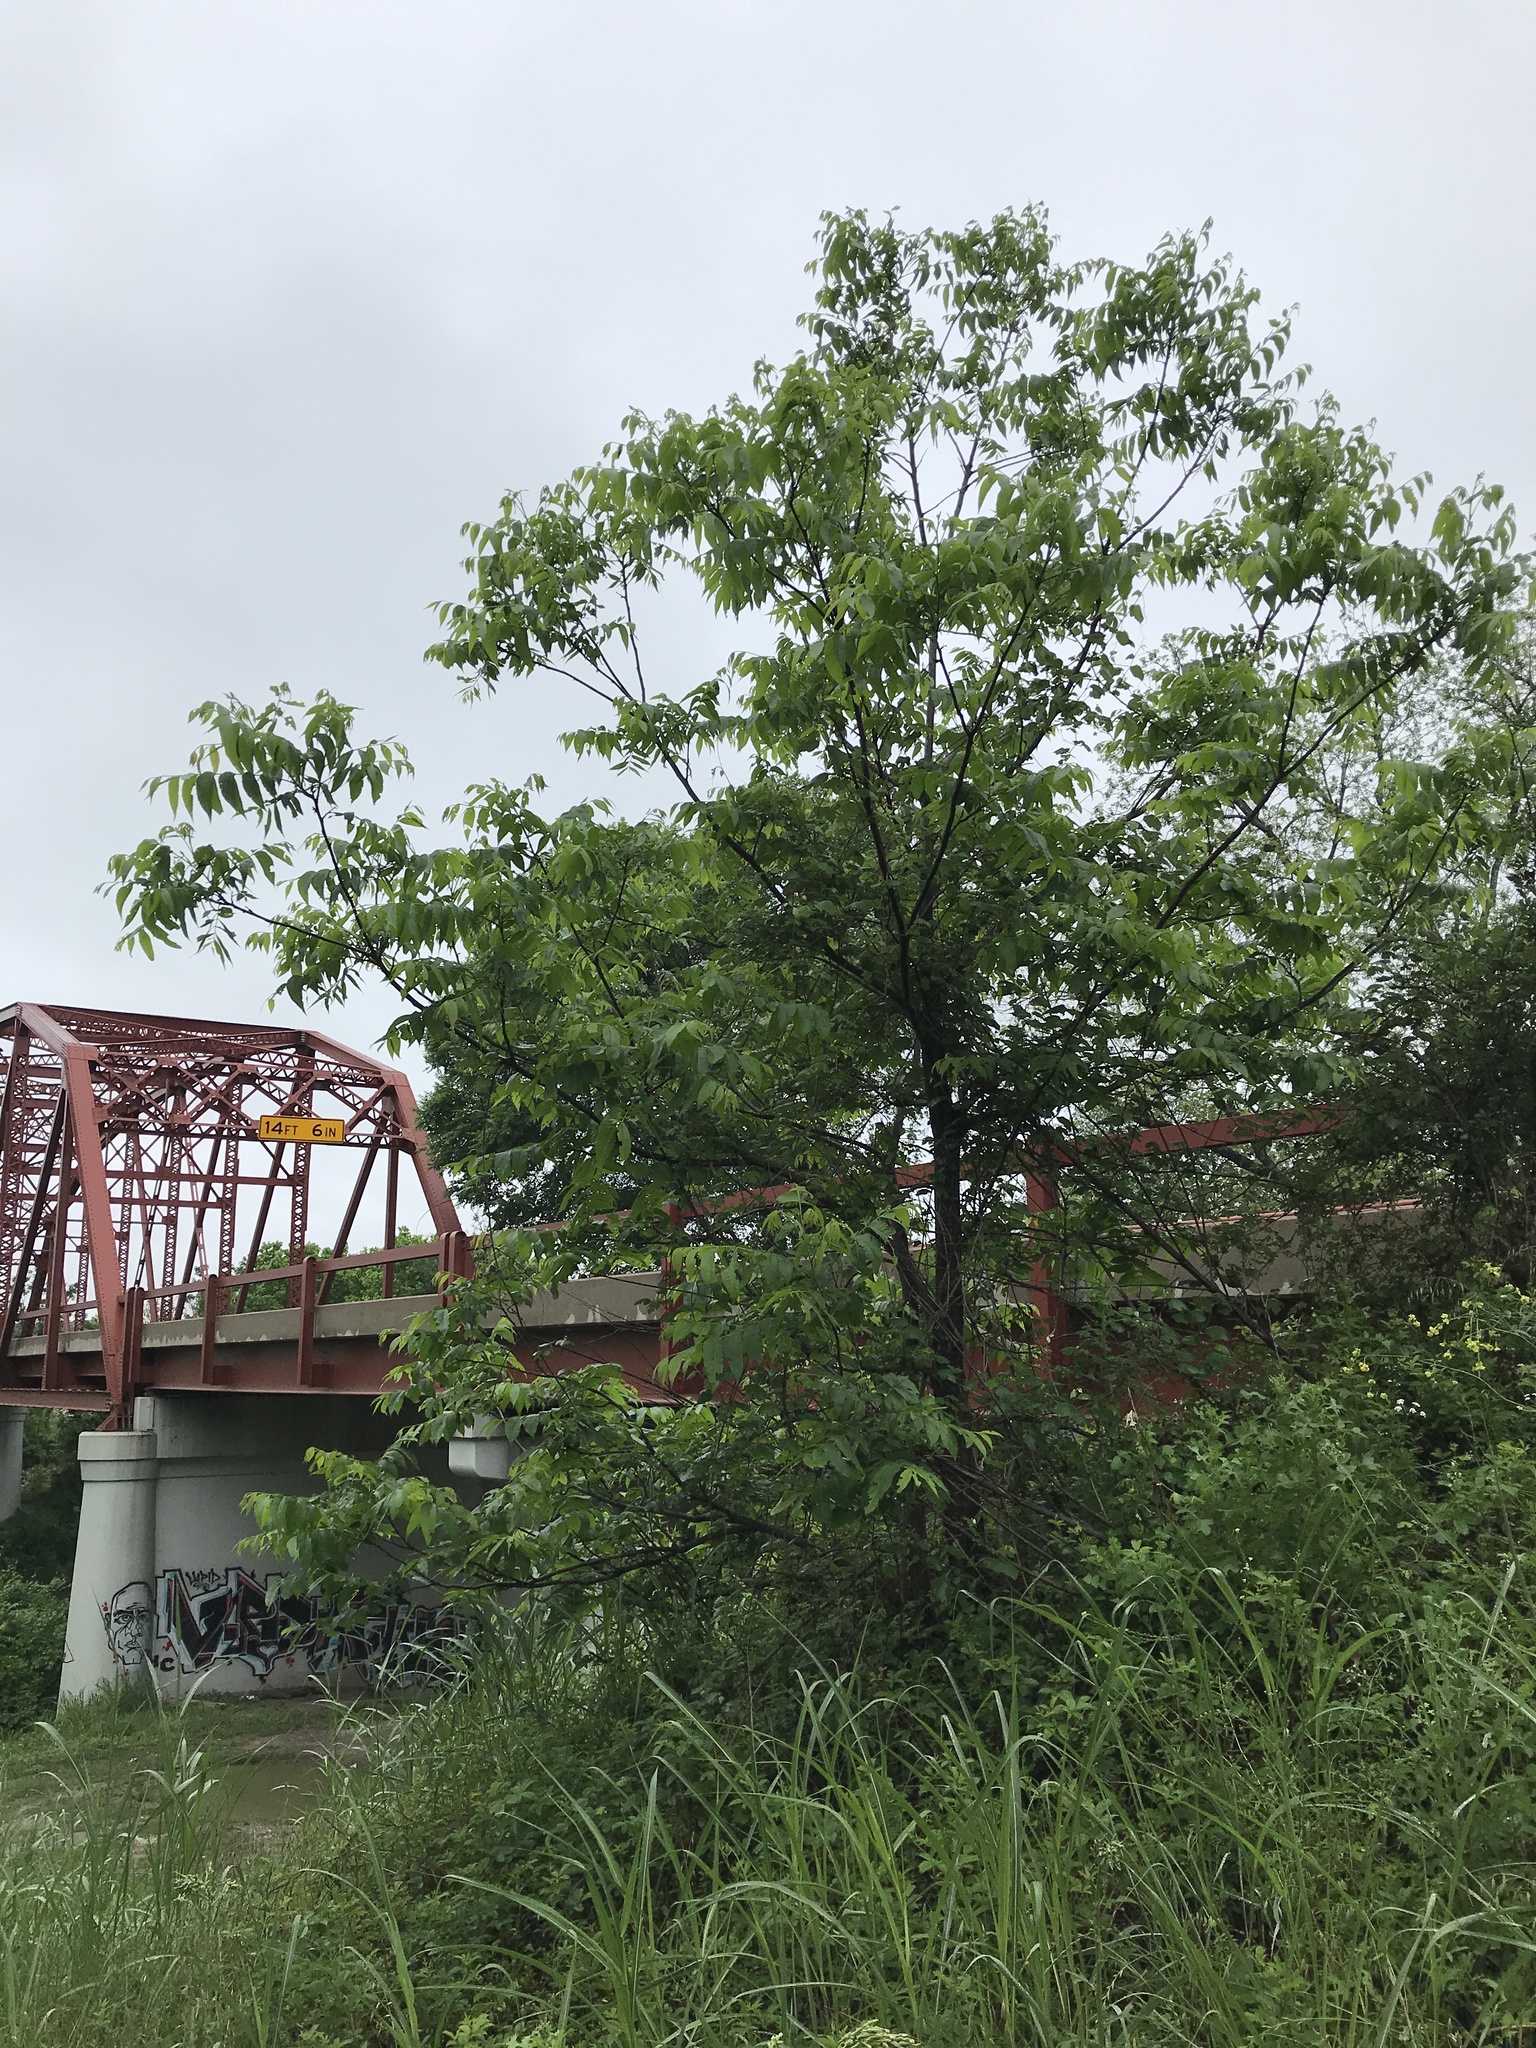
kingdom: Plantae
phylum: Tracheophyta
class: Magnoliopsida
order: Fagales
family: Juglandaceae
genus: Carya
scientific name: Carya illinoinensis
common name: Pecan
